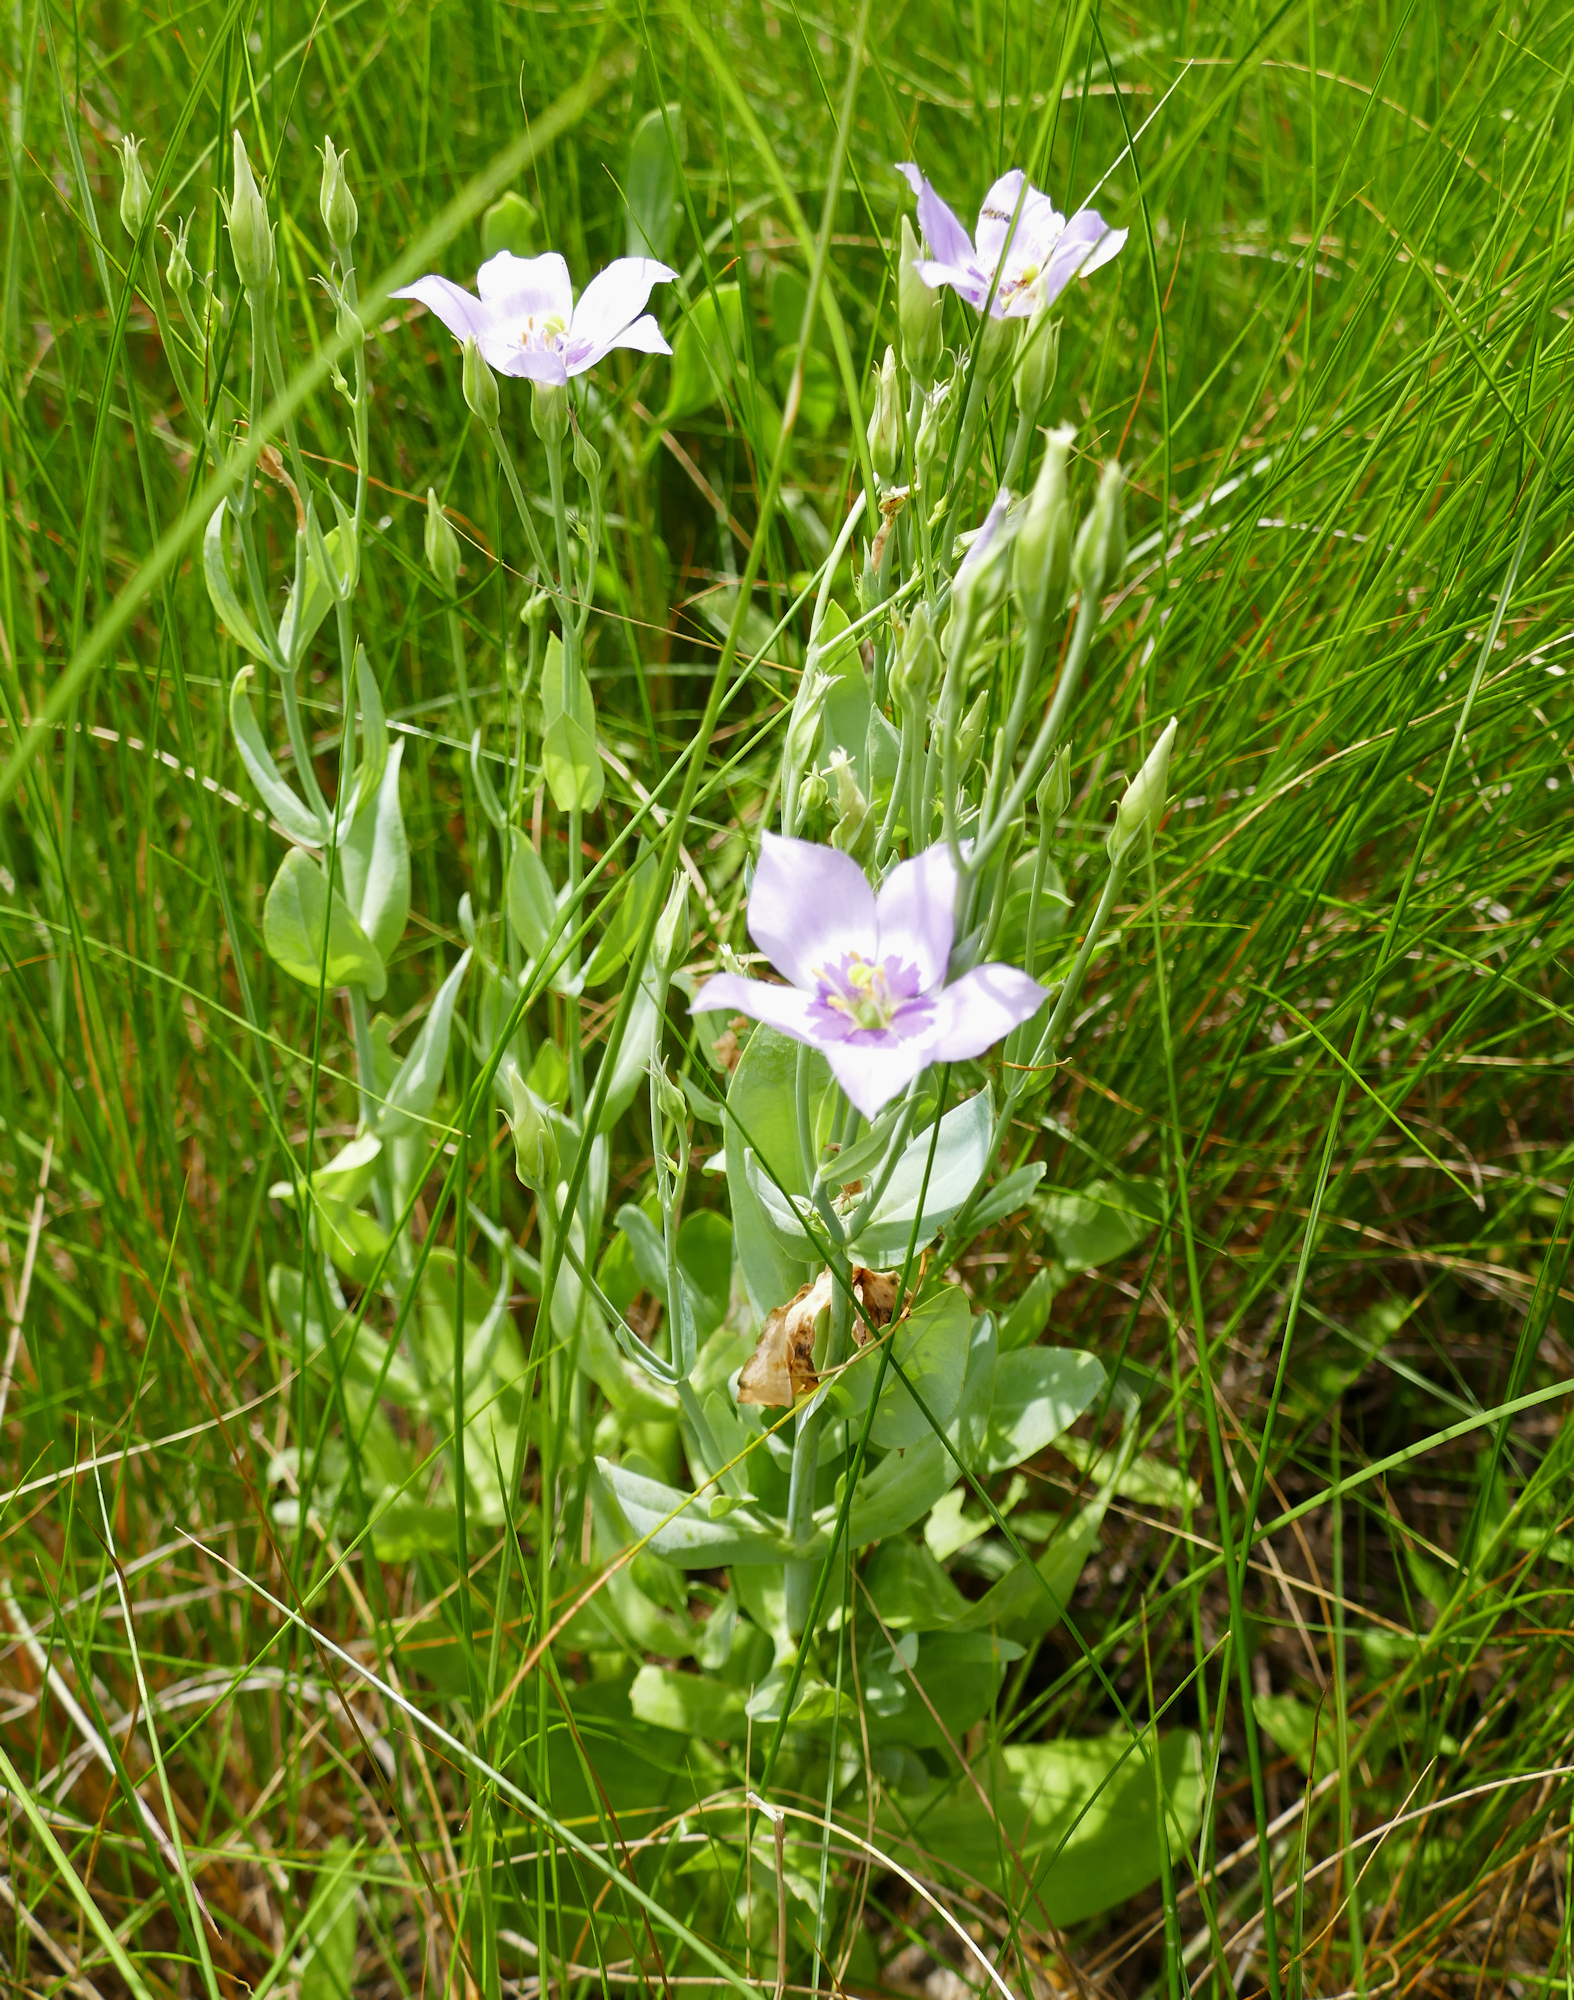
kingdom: Plantae
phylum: Tracheophyta
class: Magnoliopsida
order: Gentianales
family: Gentianaceae
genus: Eustoma
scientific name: Eustoma exaltatum
